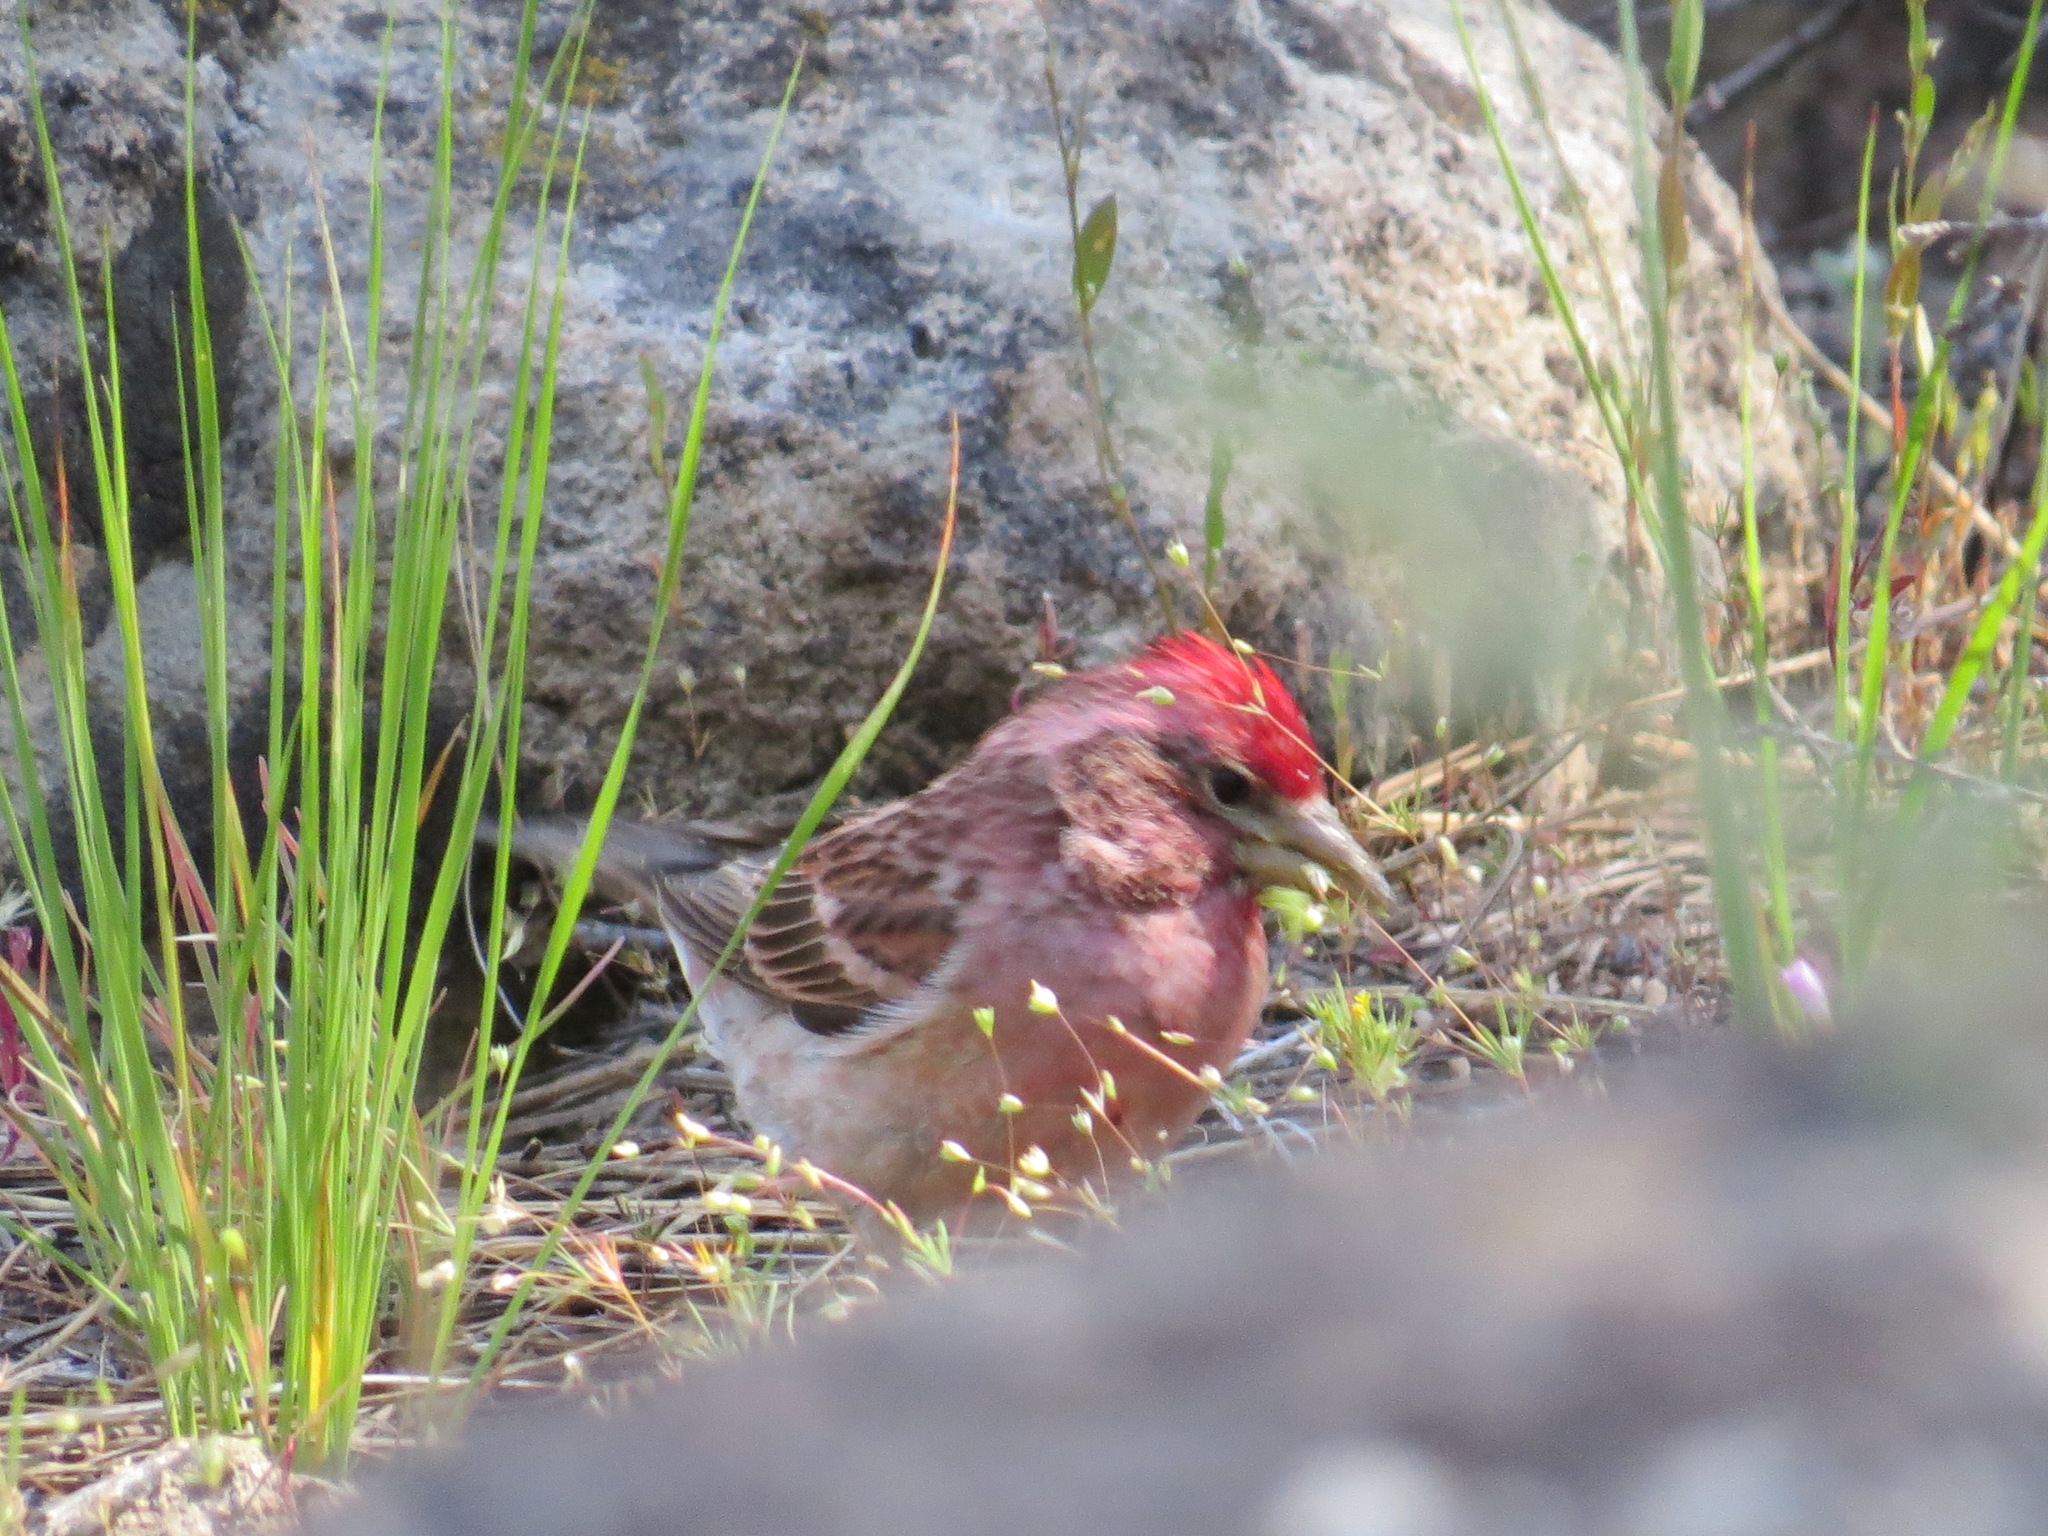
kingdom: Animalia
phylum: Chordata
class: Aves
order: Passeriformes
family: Fringillidae
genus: Haemorhous
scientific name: Haemorhous cassinii
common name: Cassin's finch
